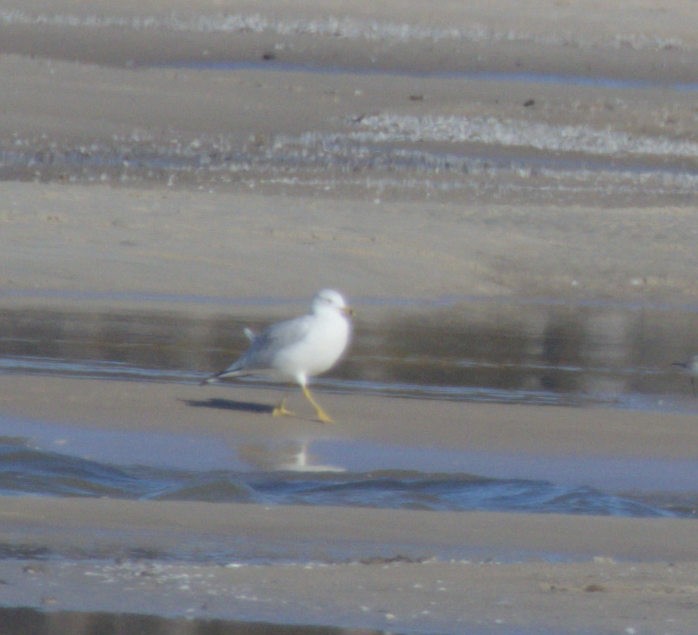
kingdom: Animalia
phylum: Chordata
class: Aves
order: Charadriiformes
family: Laridae
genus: Larus
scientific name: Larus delawarensis
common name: Ring-billed gull
